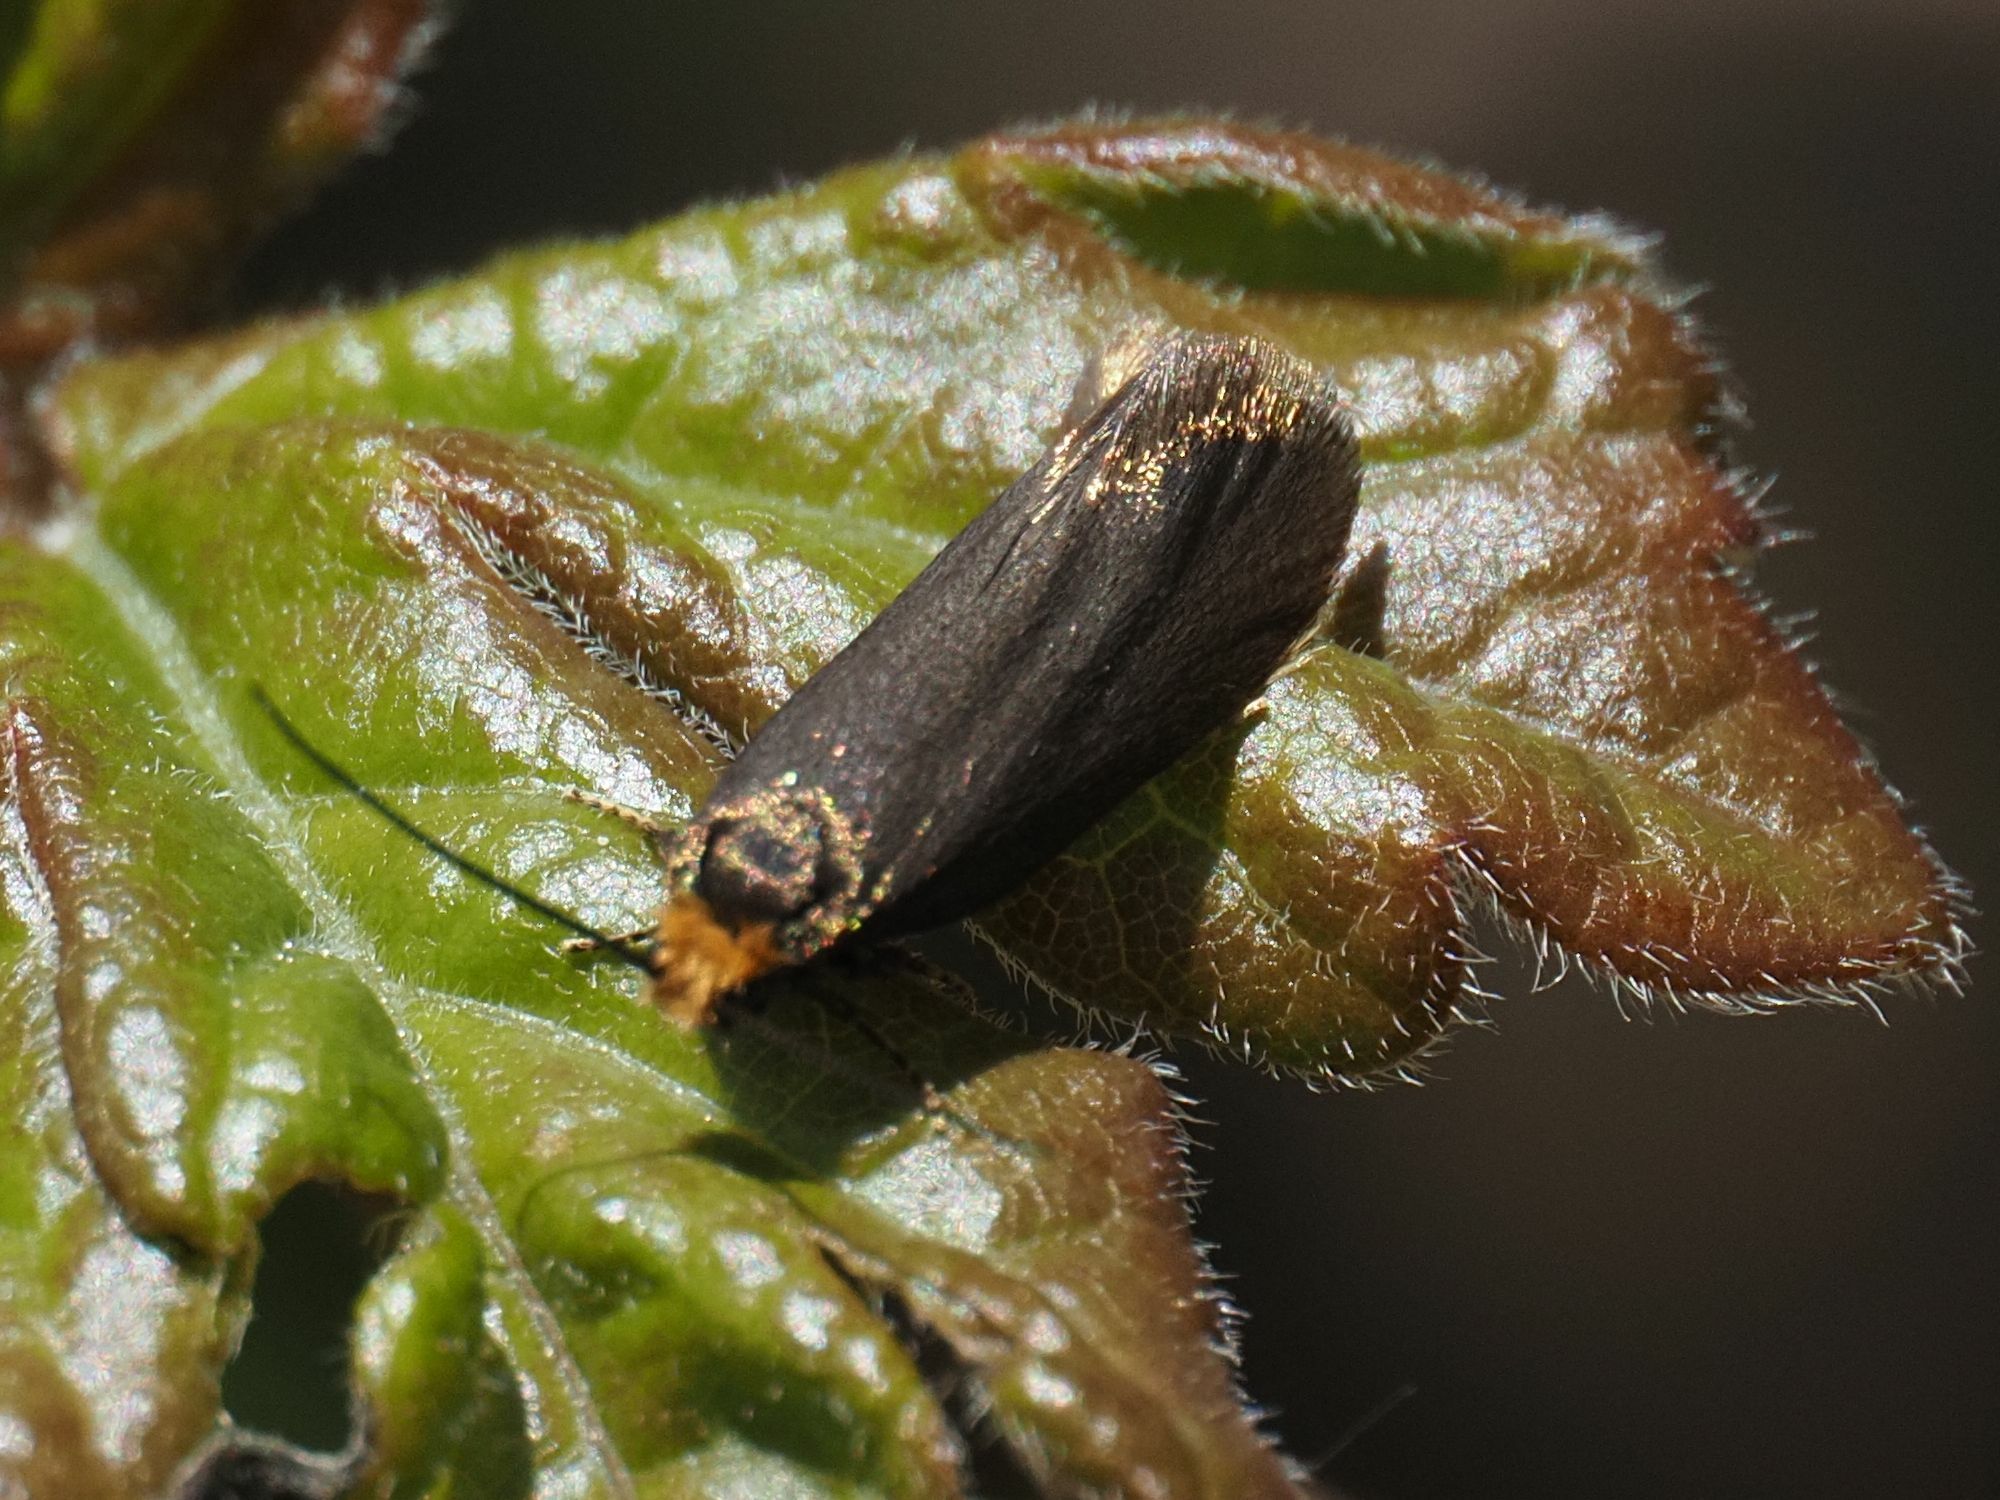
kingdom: Animalia
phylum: Arthropoda
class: Insecta
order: Lepidoptera
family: Incurvariidae
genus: Incurvaria
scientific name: Incurvaria koerneriella
